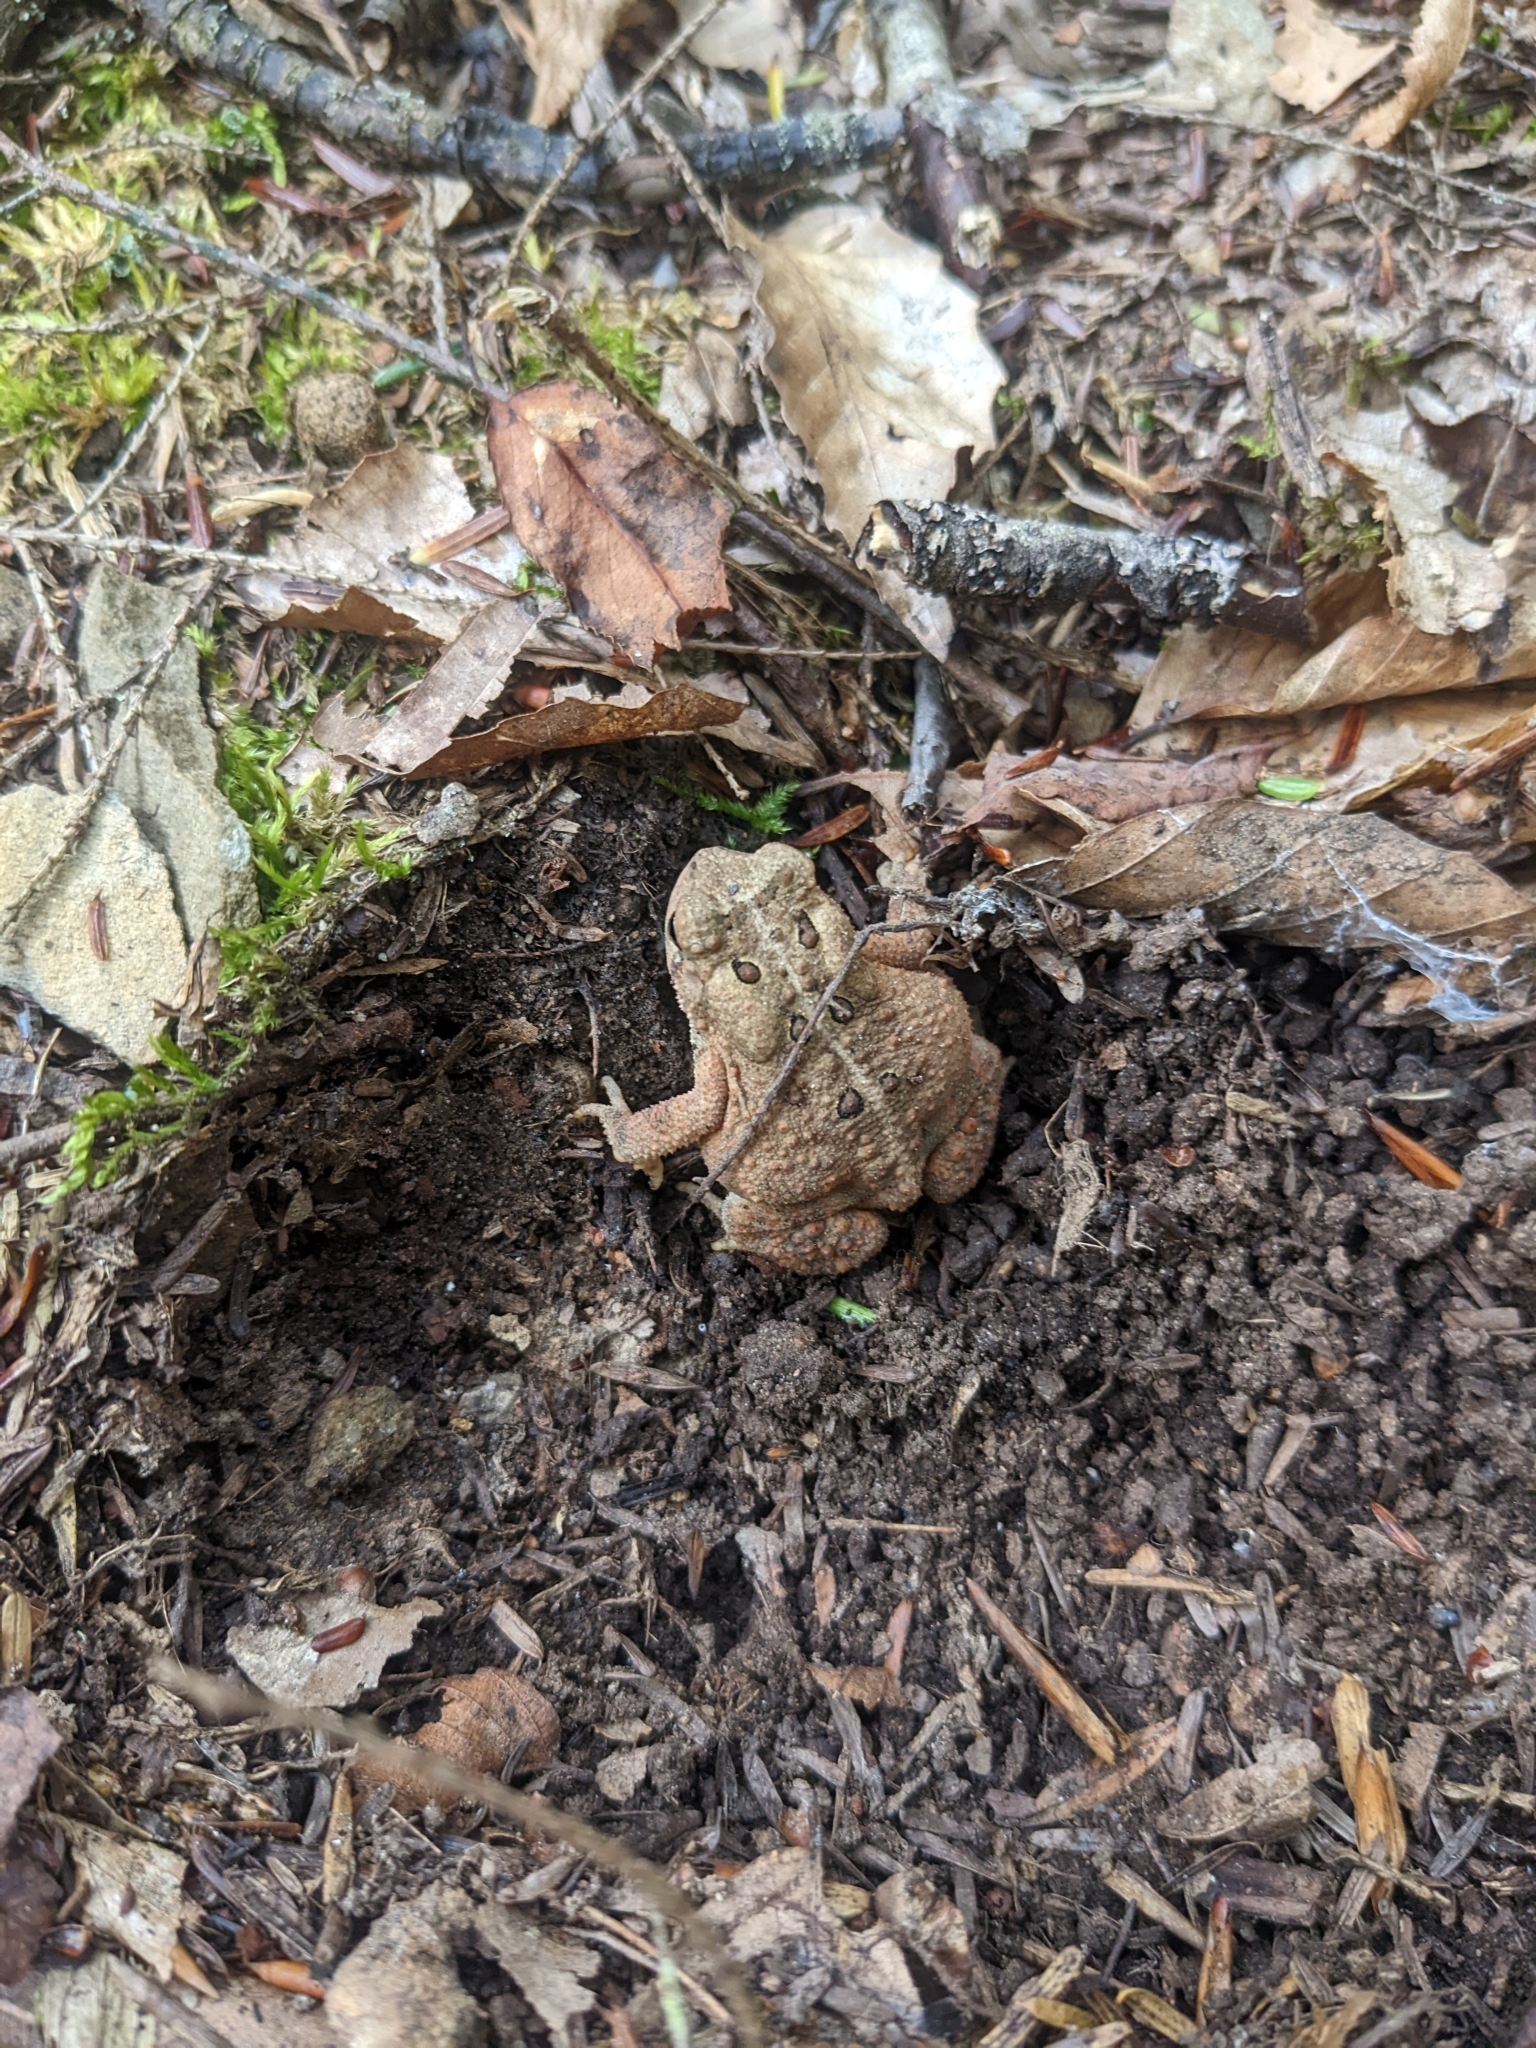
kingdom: Animalia
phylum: Chordata
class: Amphibia
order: Anura
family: Bufonidae
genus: Anaxyrus
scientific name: Anaxyrus americanus
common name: American toad
